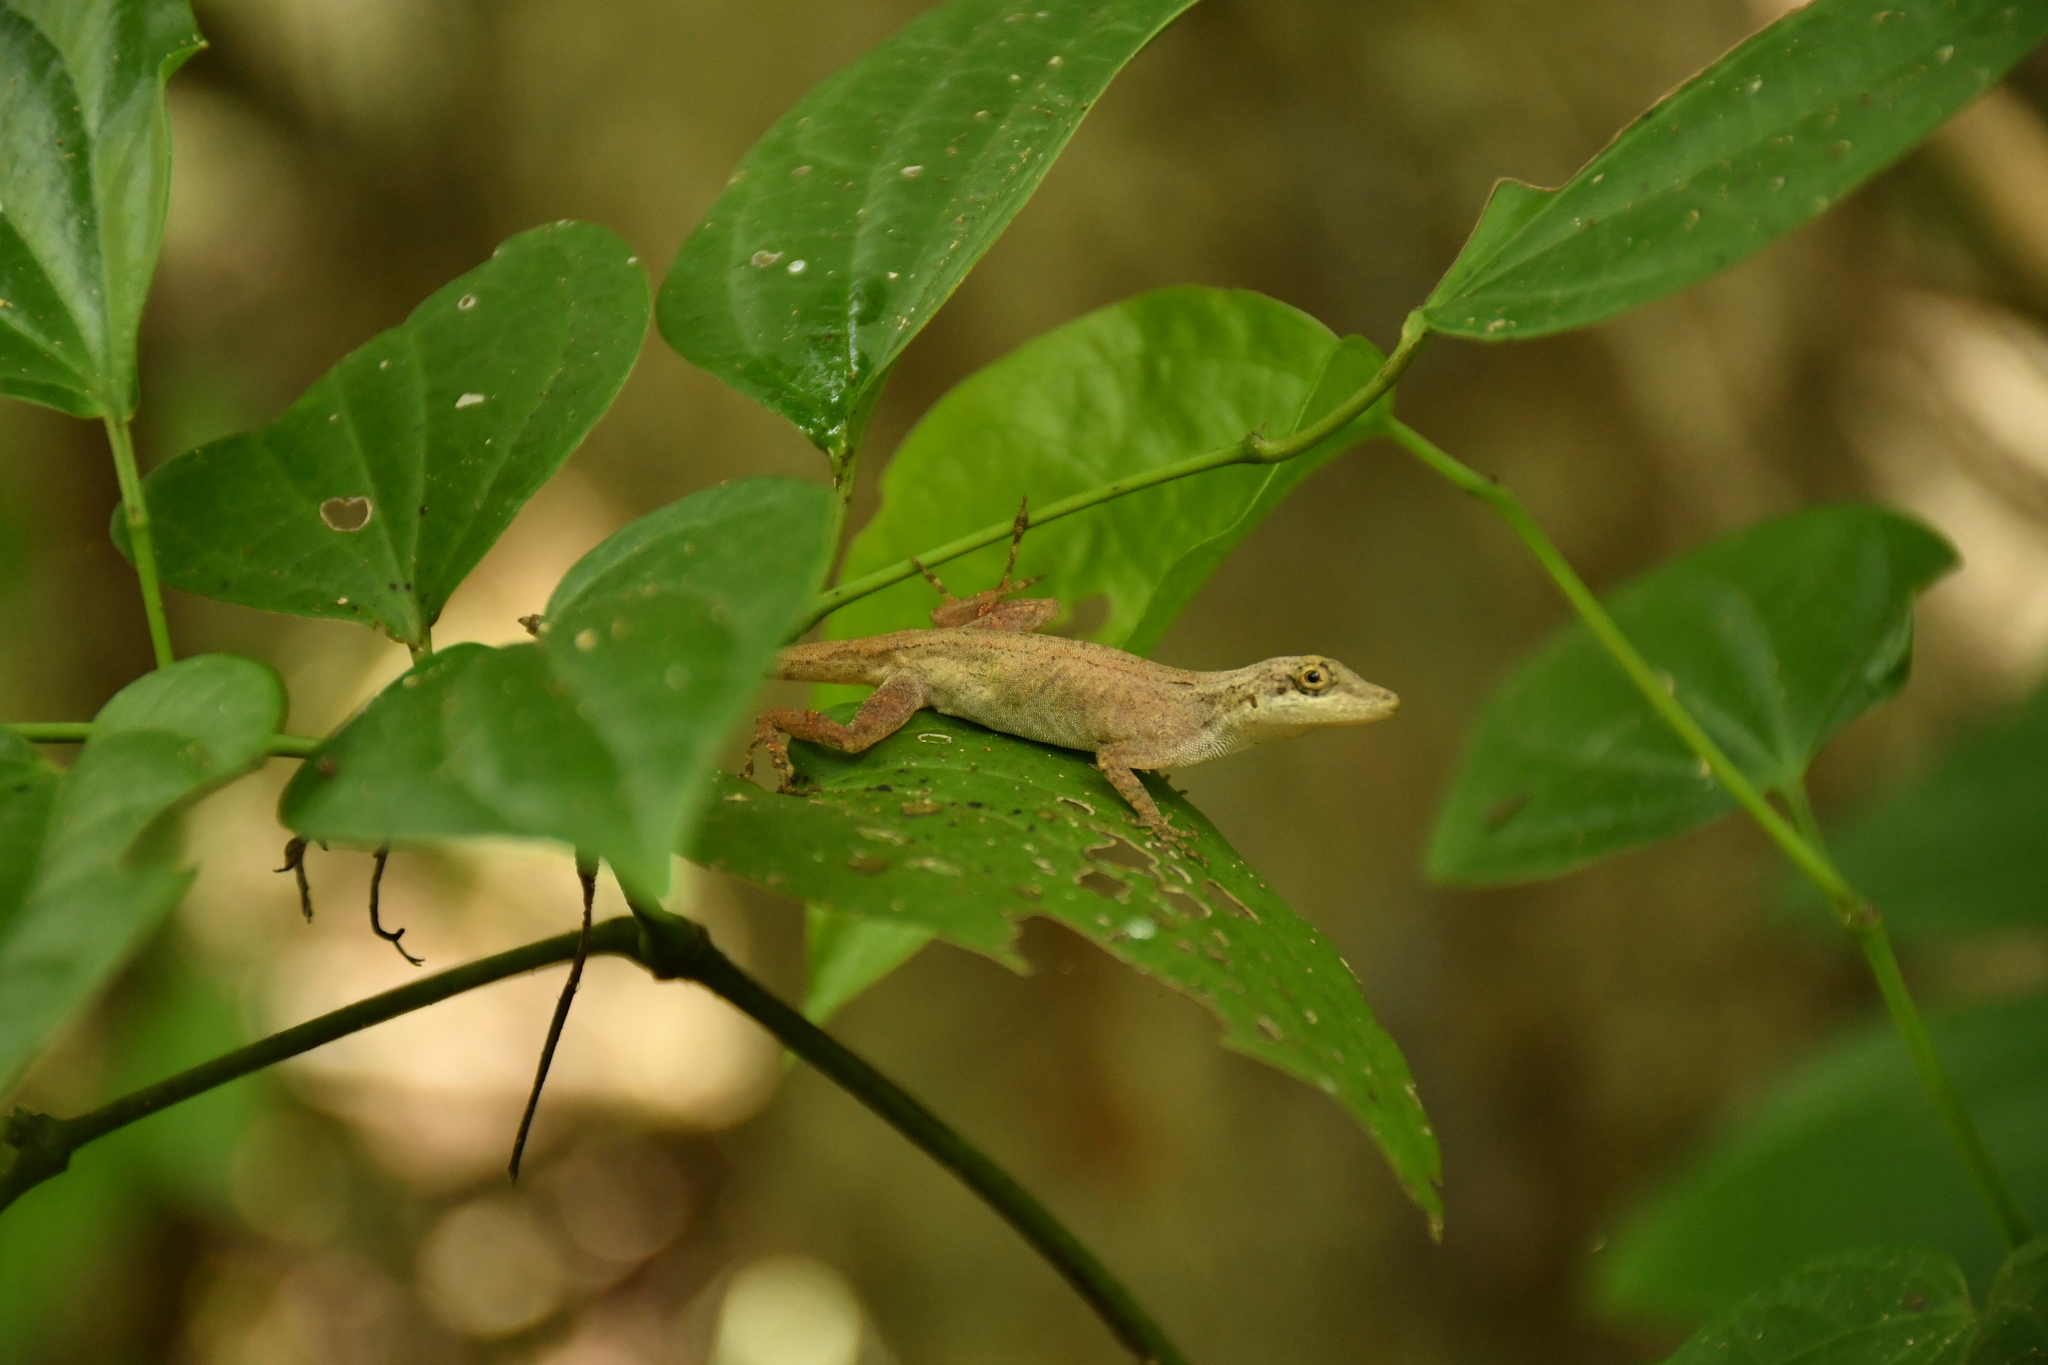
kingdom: Animalia
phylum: Chordata
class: Squamata
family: Dactyloidae
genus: Anolis
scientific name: Anolis rodriguezii
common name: Middle american smooth anole
